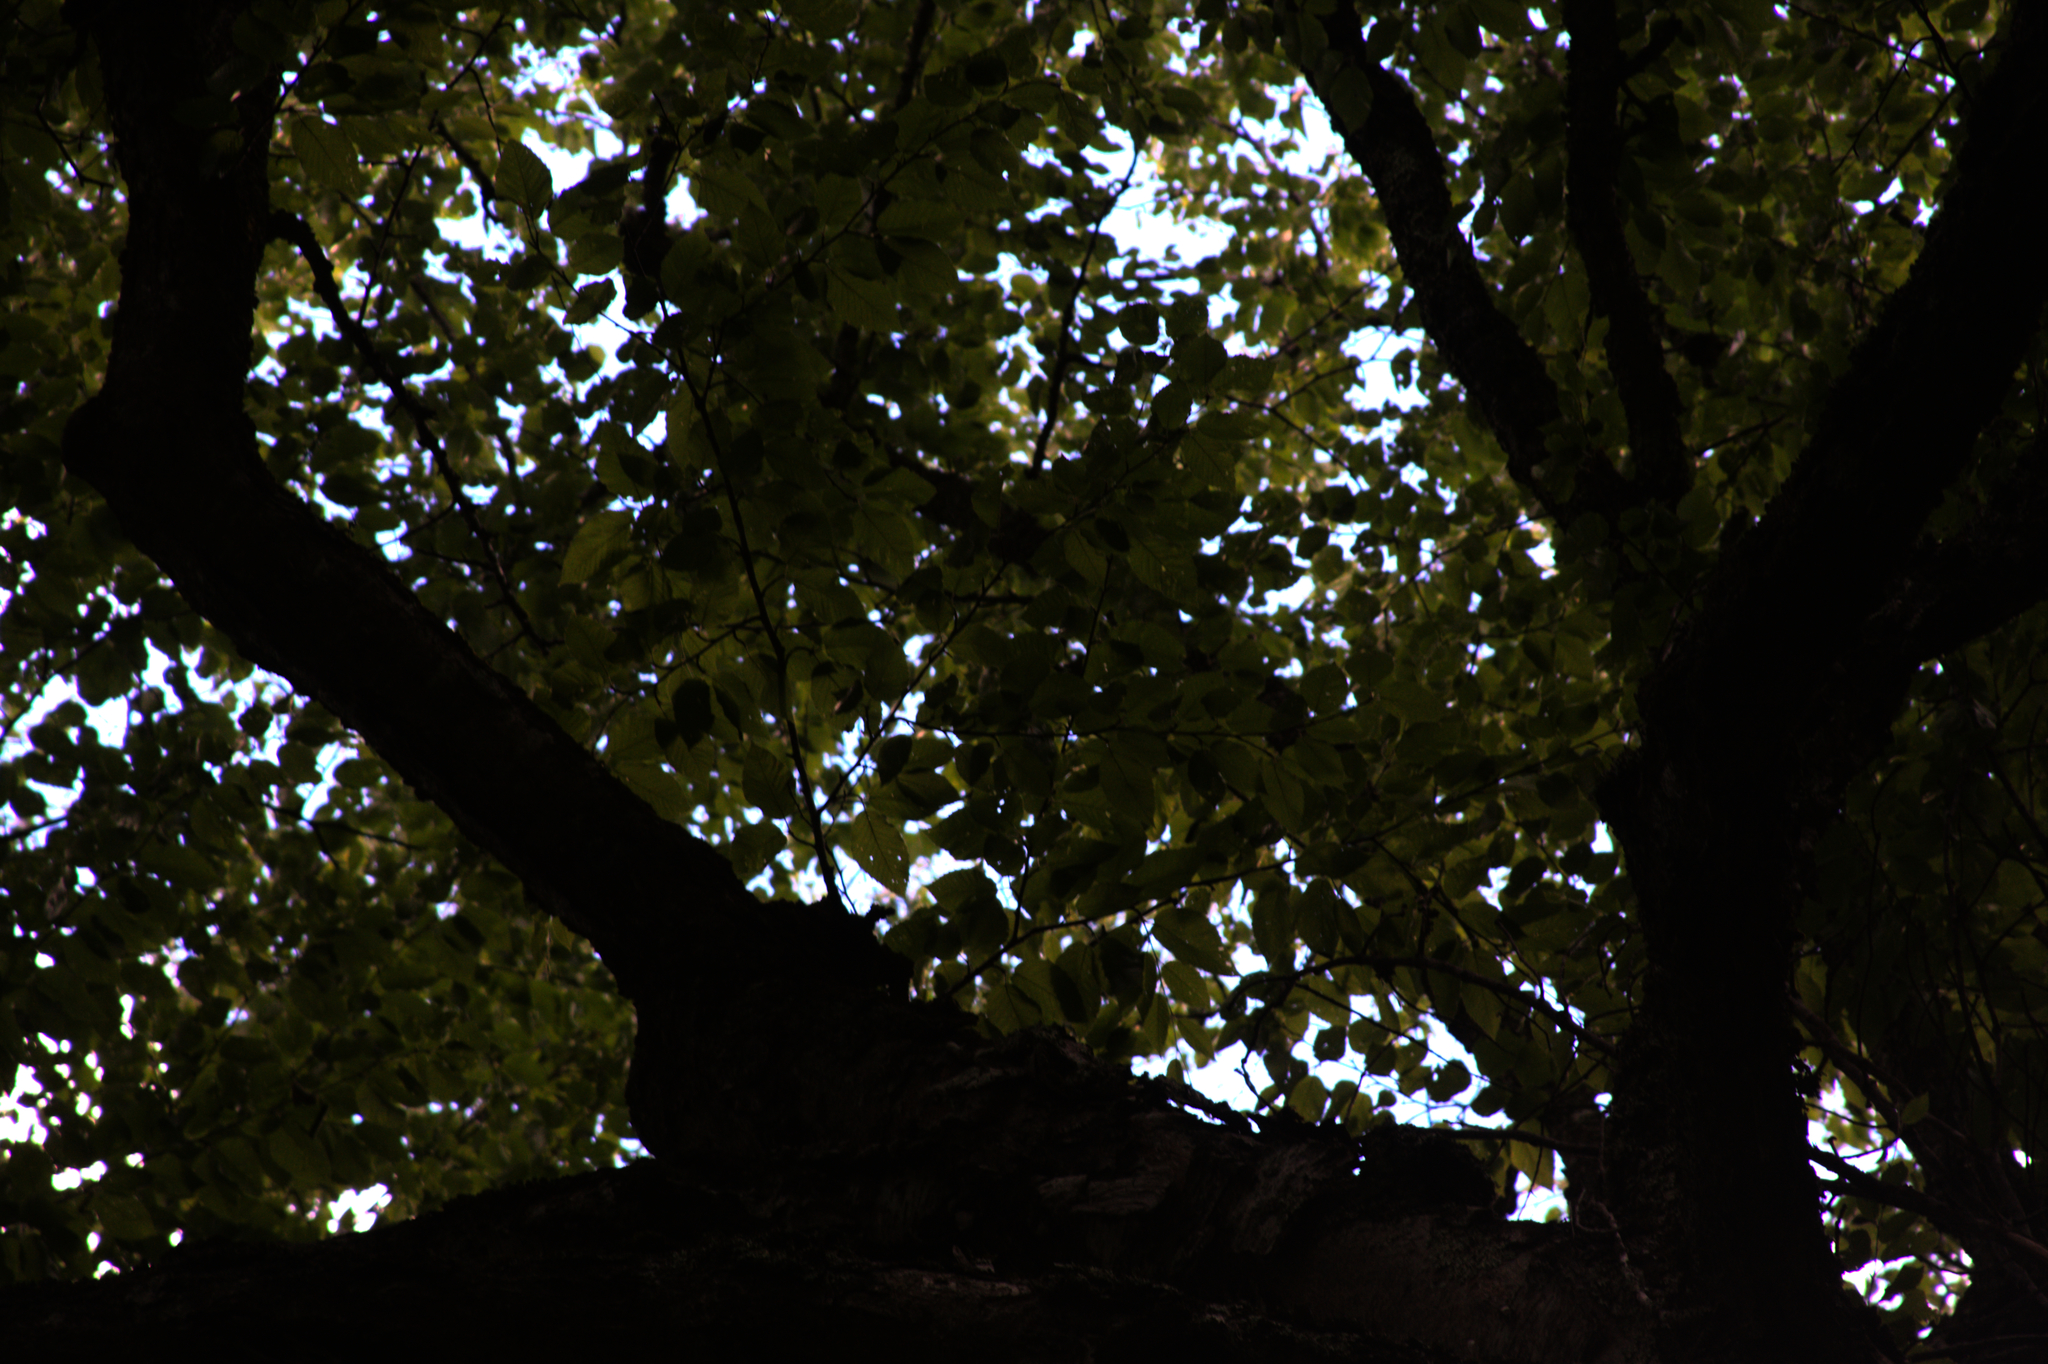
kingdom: Plantae
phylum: Tracheophyta
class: Magnoliopsida
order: Fagales
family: Betulaceae
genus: Betula
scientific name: Betula alleghaniensis
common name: Yellow birch
